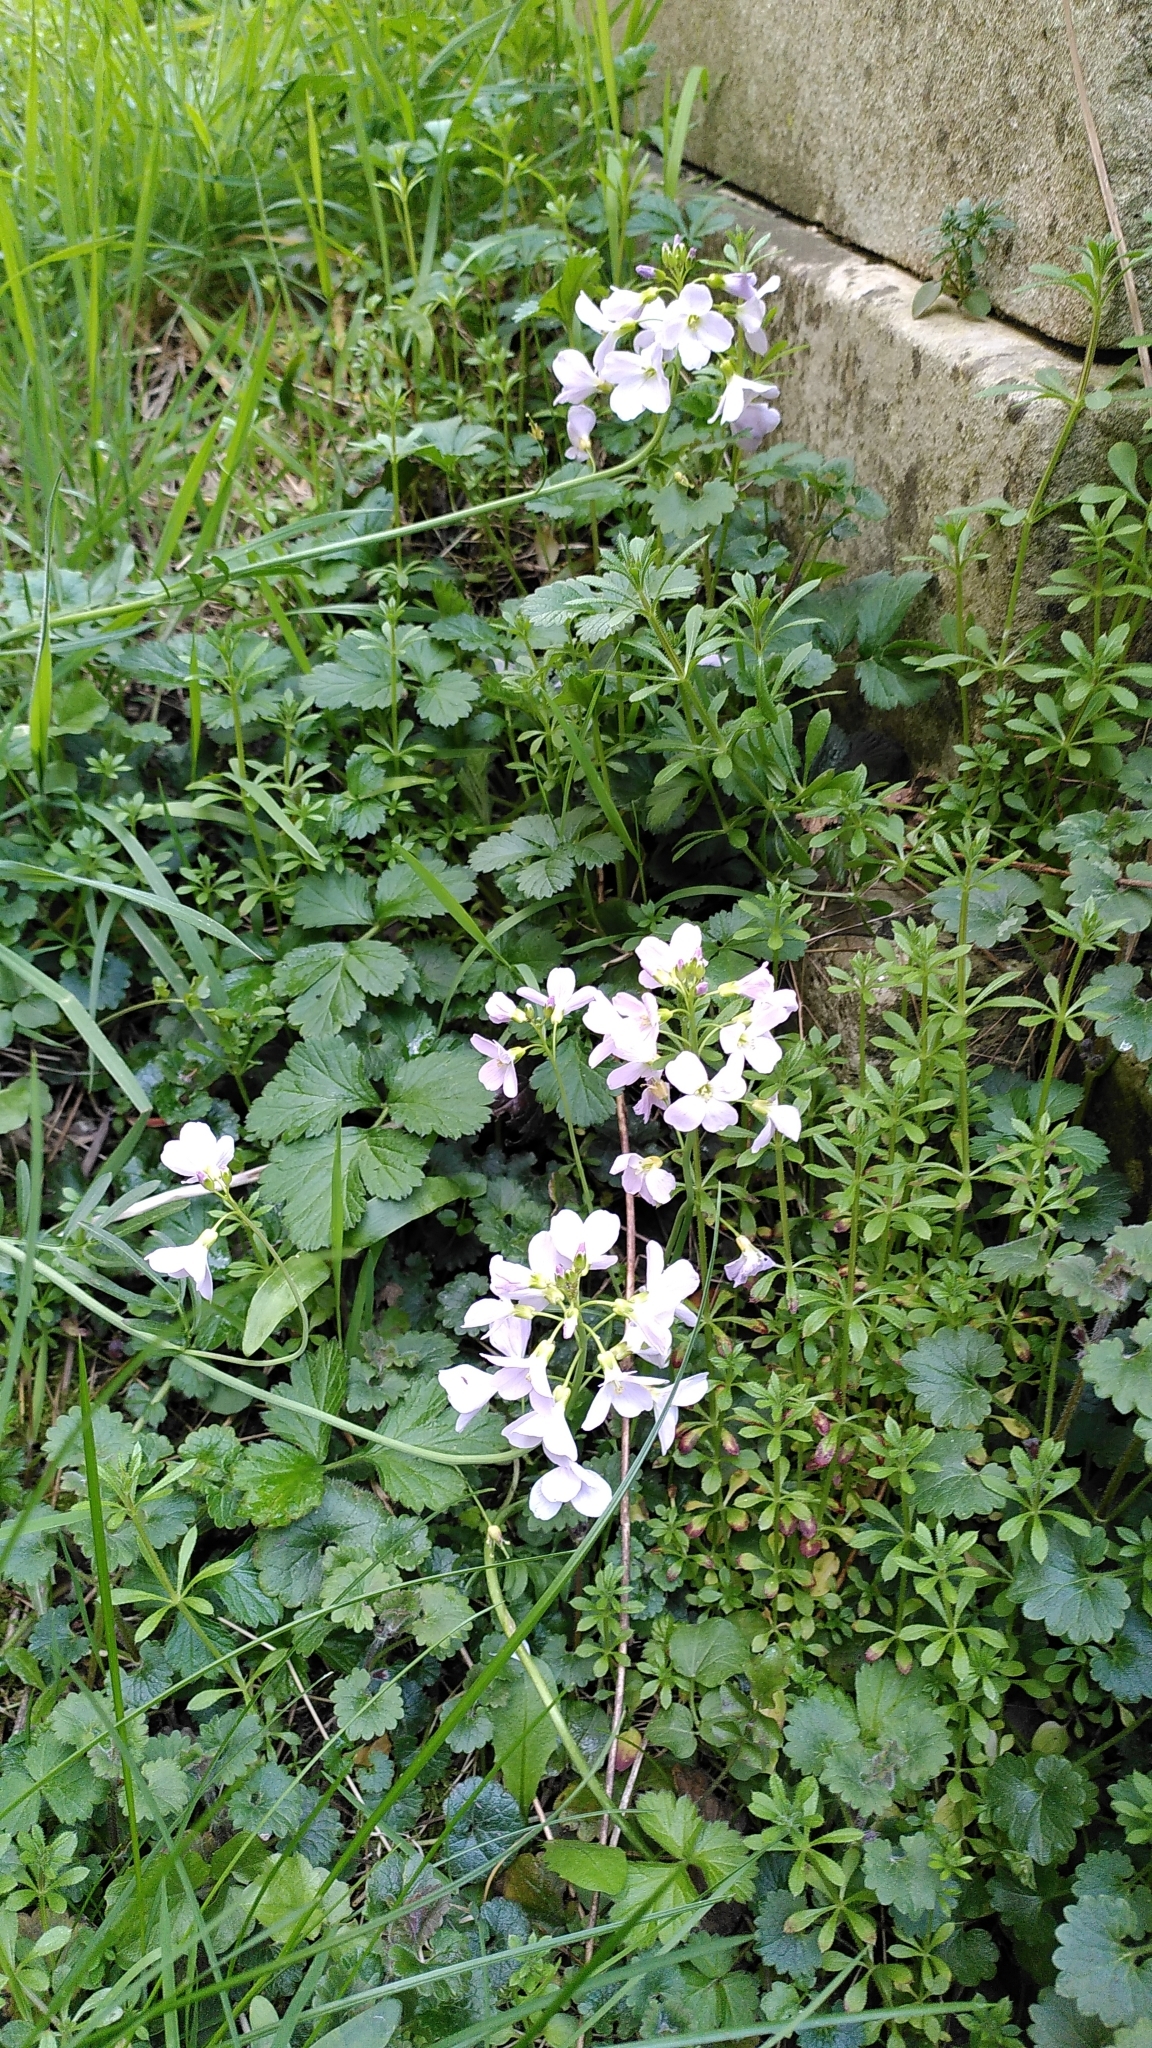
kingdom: Plantae
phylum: Tracheophyta
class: Magnoliopsida
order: Brassicales
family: Brassicaceae
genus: Cardamine
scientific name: Cardamine pratensis
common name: Cuckoo flower
